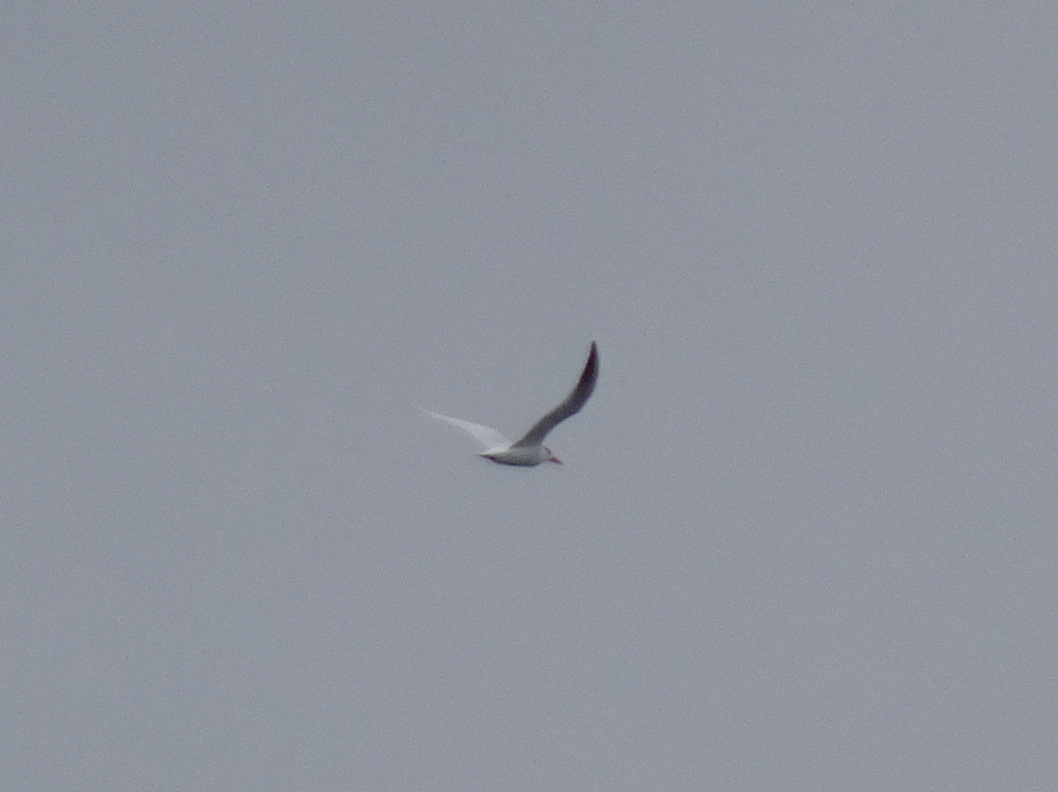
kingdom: Animalia
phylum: Chordata
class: Aves
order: Charadriiformes
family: Laridae
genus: Hydroprogne
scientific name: Hydroprogne caspia
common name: Caspian tern
